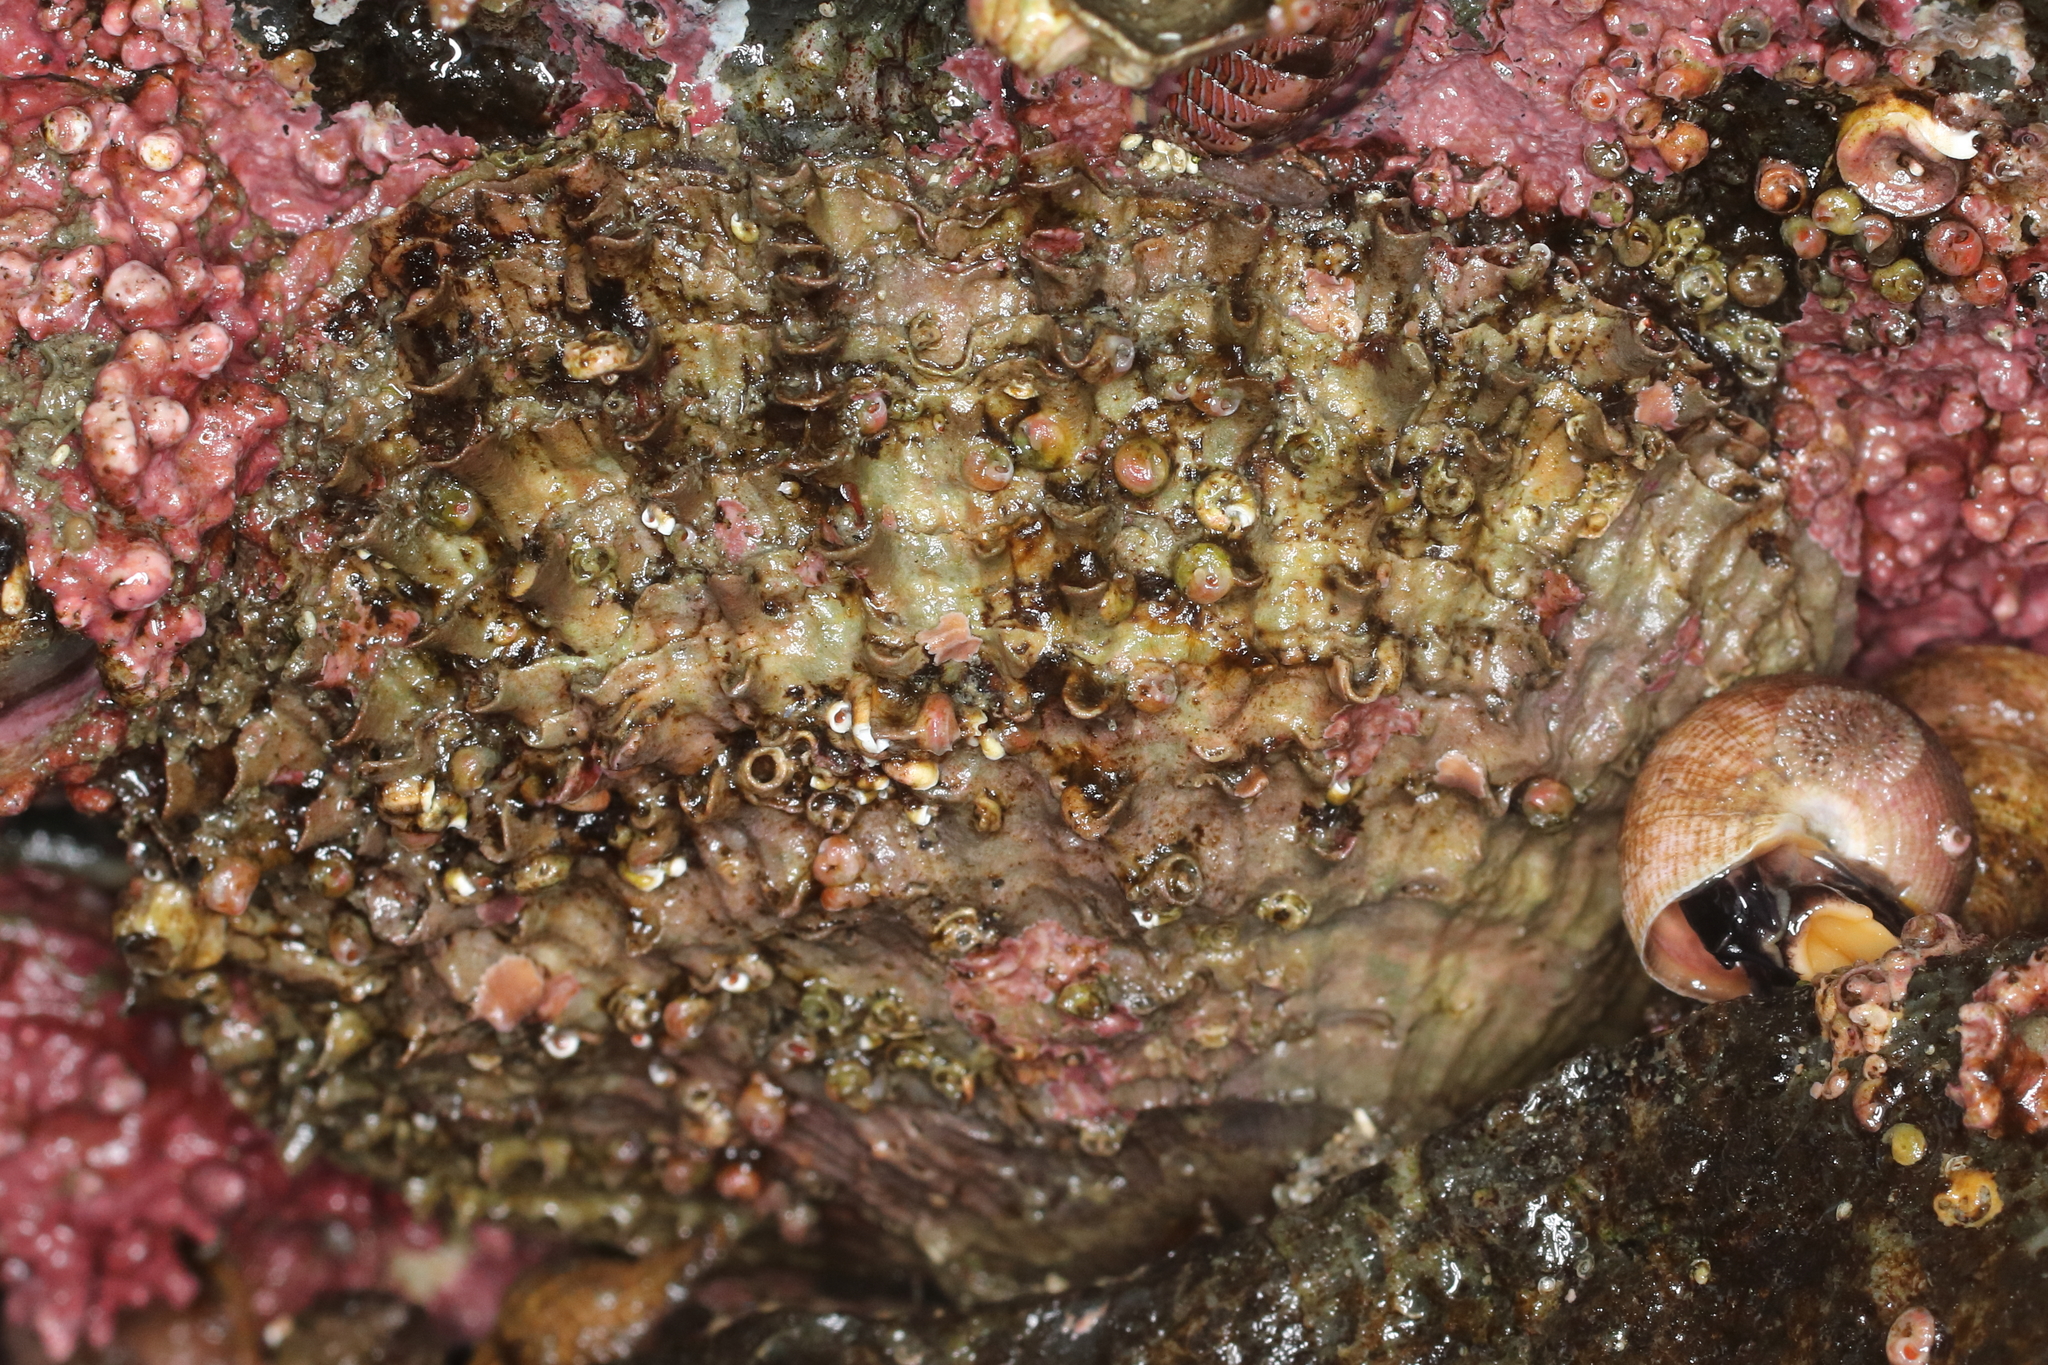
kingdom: Animalia
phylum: Mollusca
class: Bivalvia
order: Pectinida
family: Pectinidae
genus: Crassadoma
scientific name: Crassadoma gigantea
